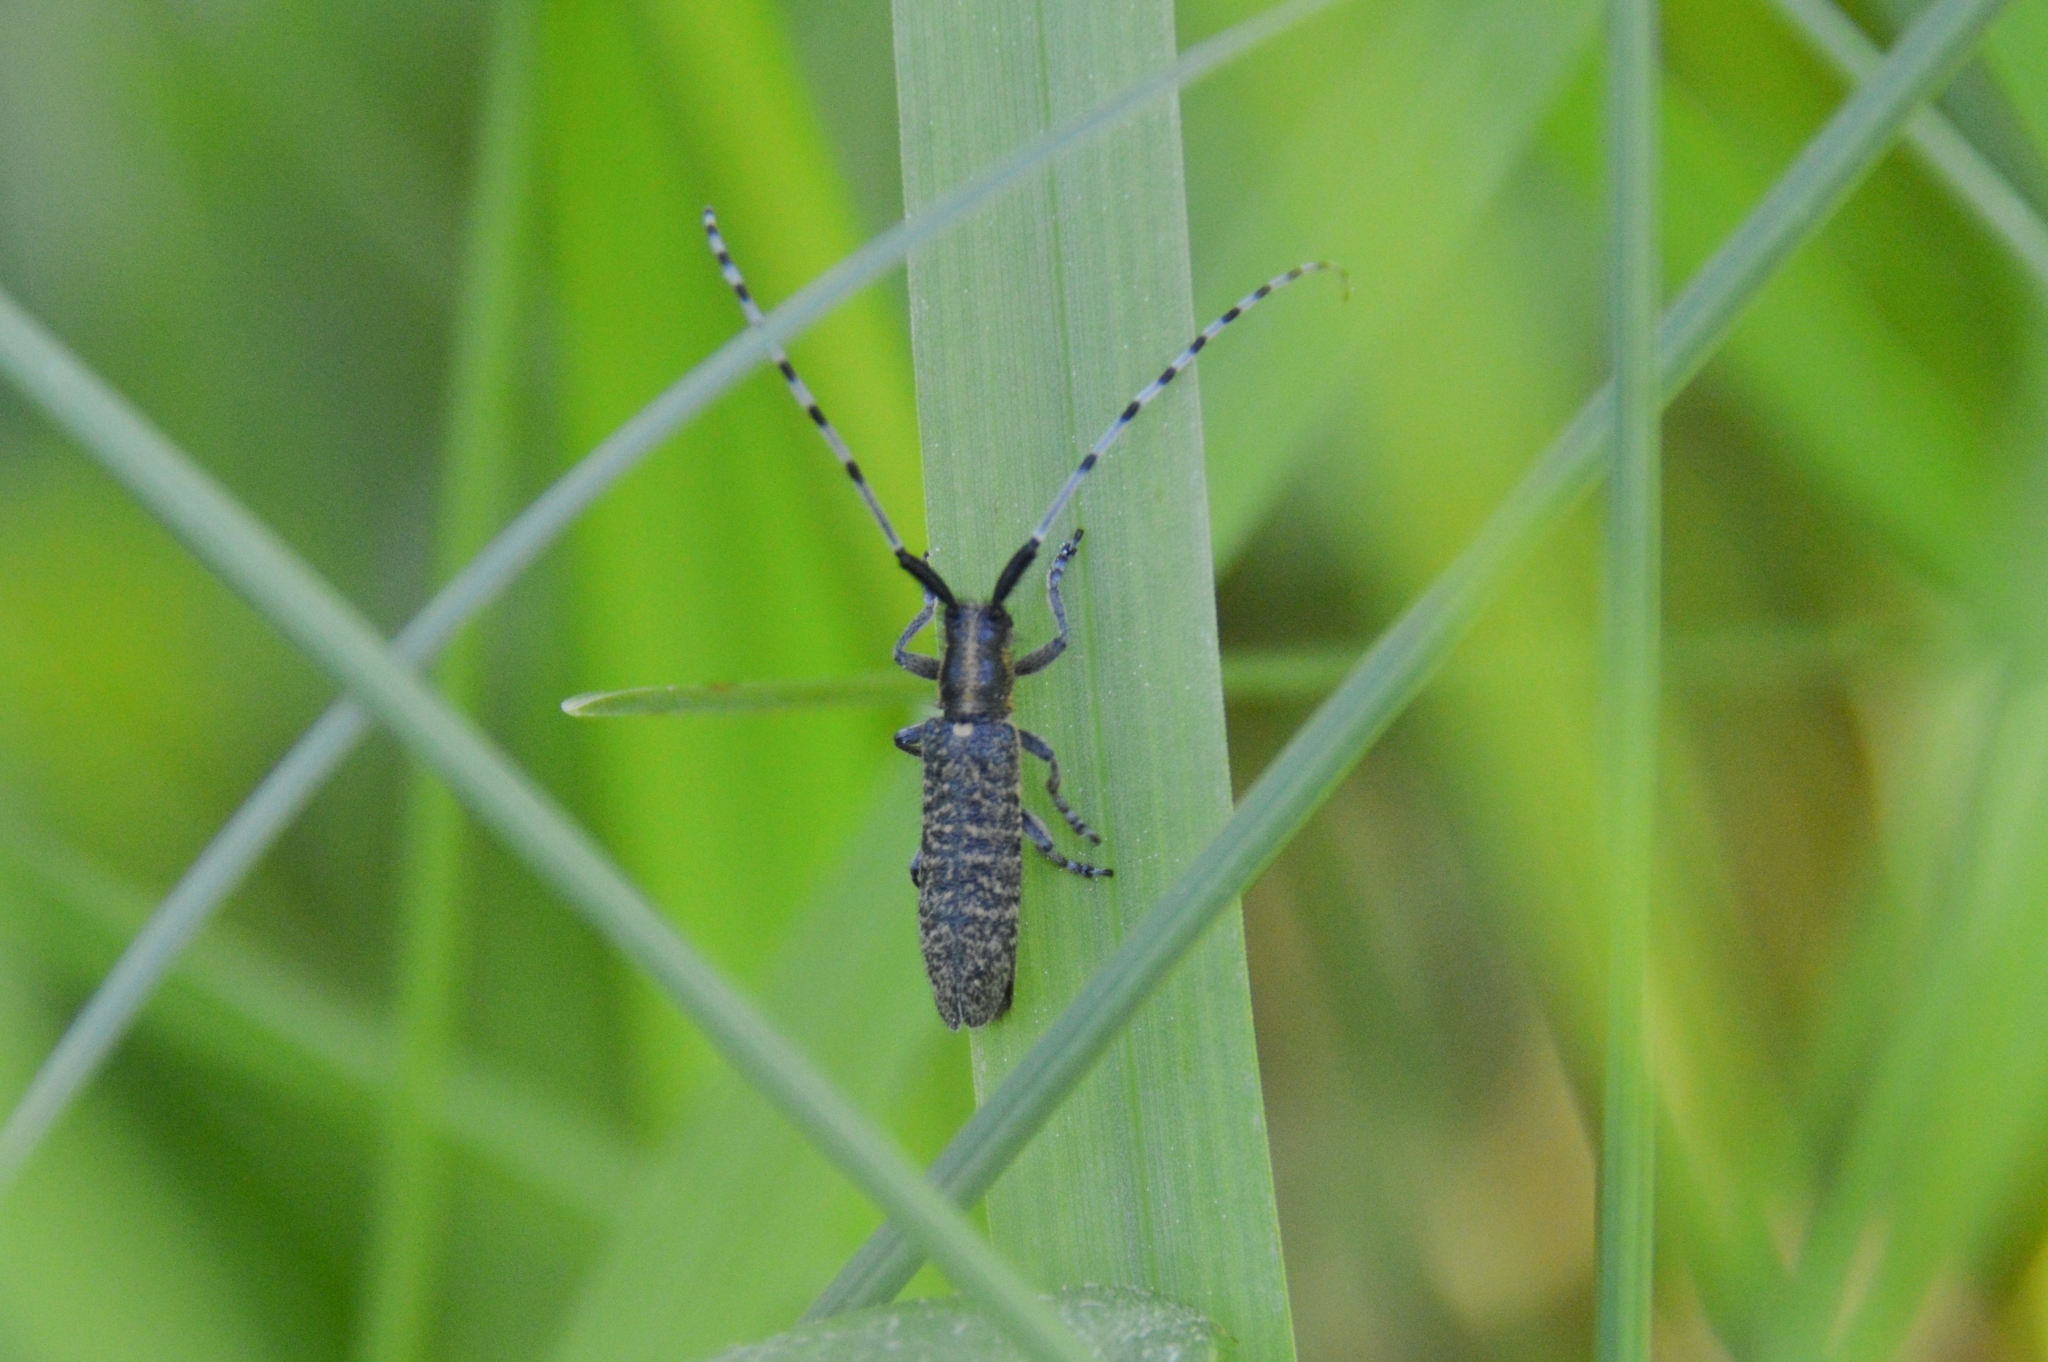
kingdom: Animalia
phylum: Arthropoda
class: Insecta
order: Coleoptera
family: Cerambycidae
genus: Agapanthia
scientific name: Agapanthia villosoviridescens
